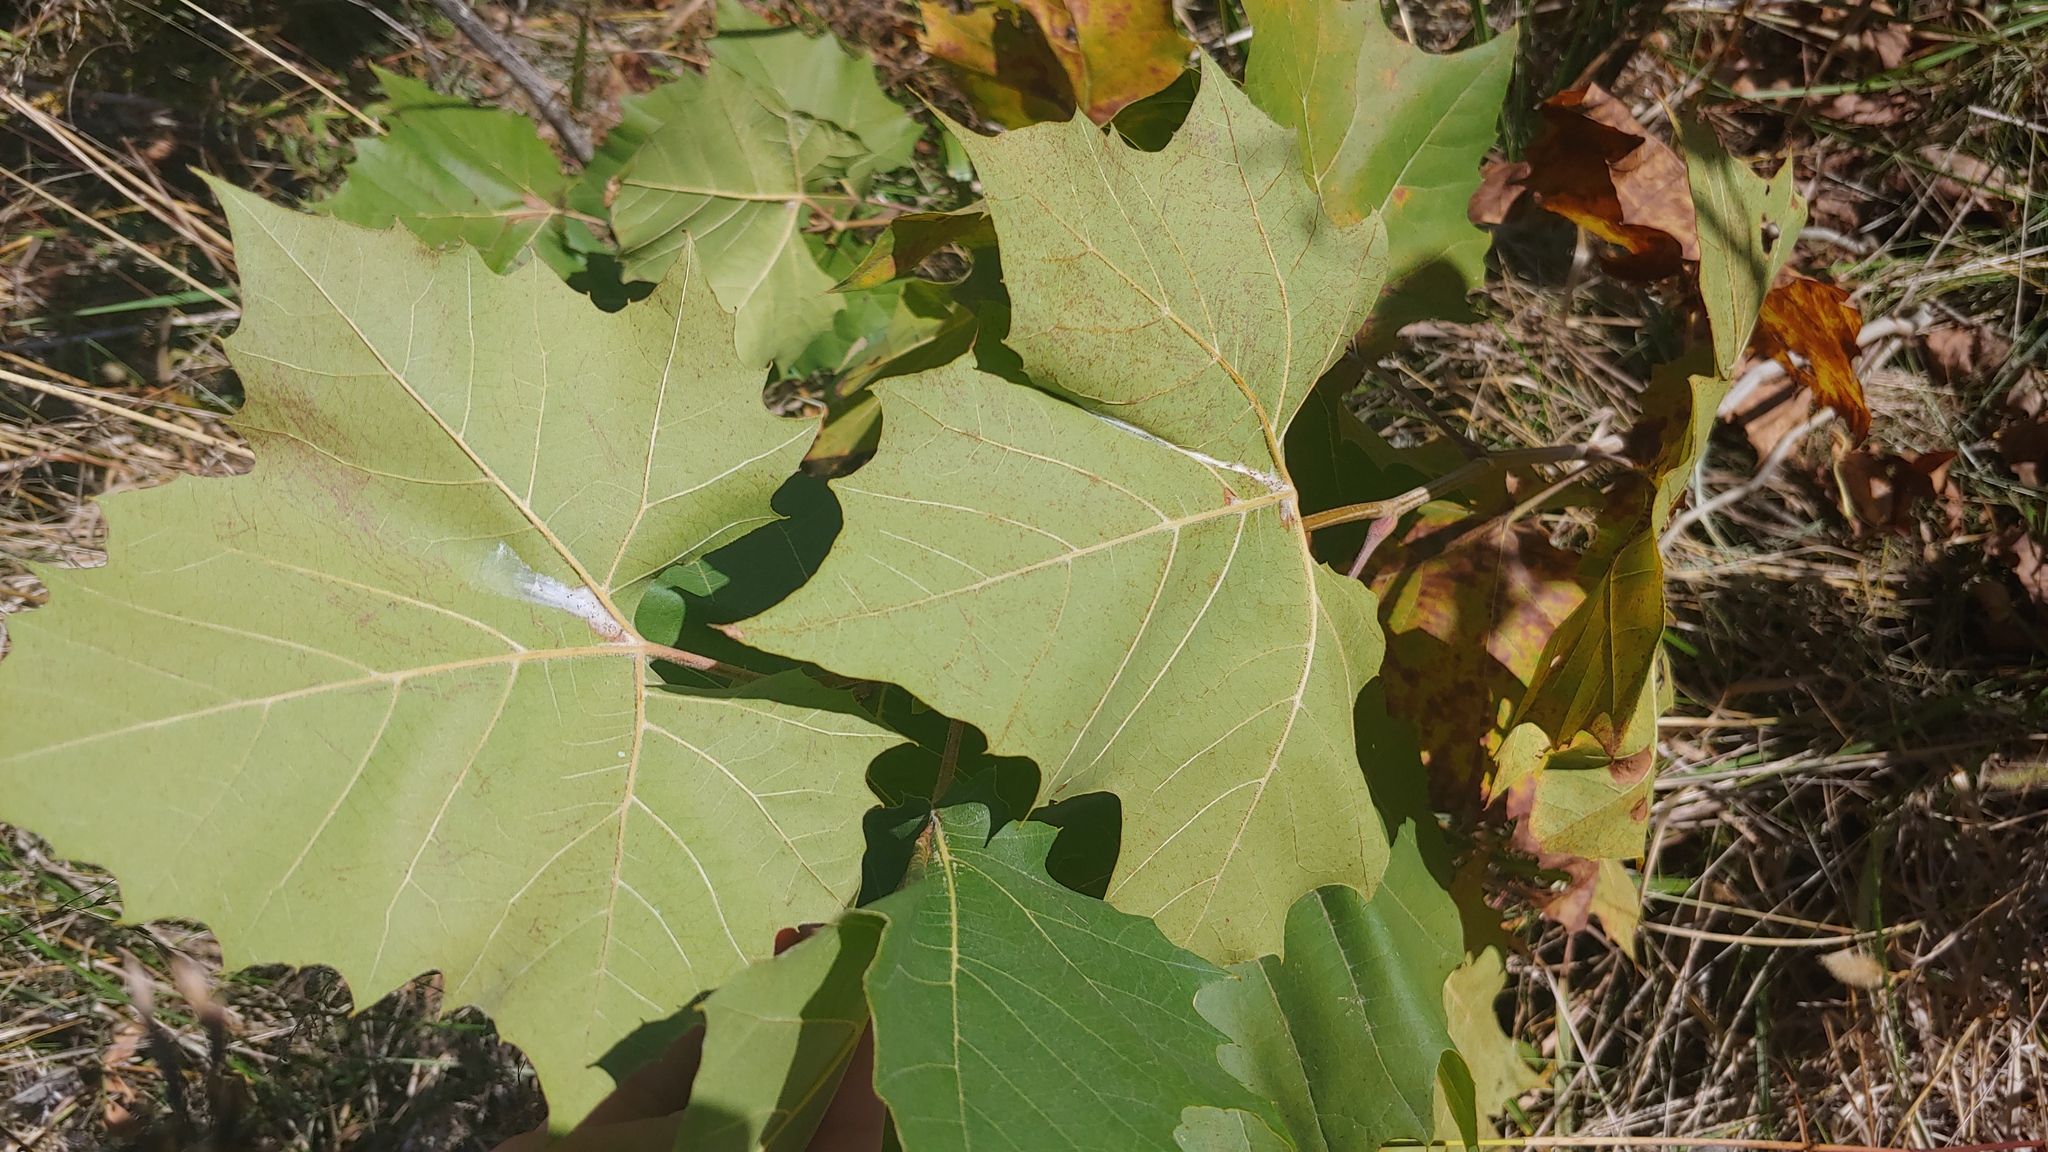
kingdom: Plantae
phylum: Tracheophyta
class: Magnoliopsida
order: Proteales
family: Platanaceae
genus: Platanus
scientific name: Platanus occidentalis
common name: American sycamore
